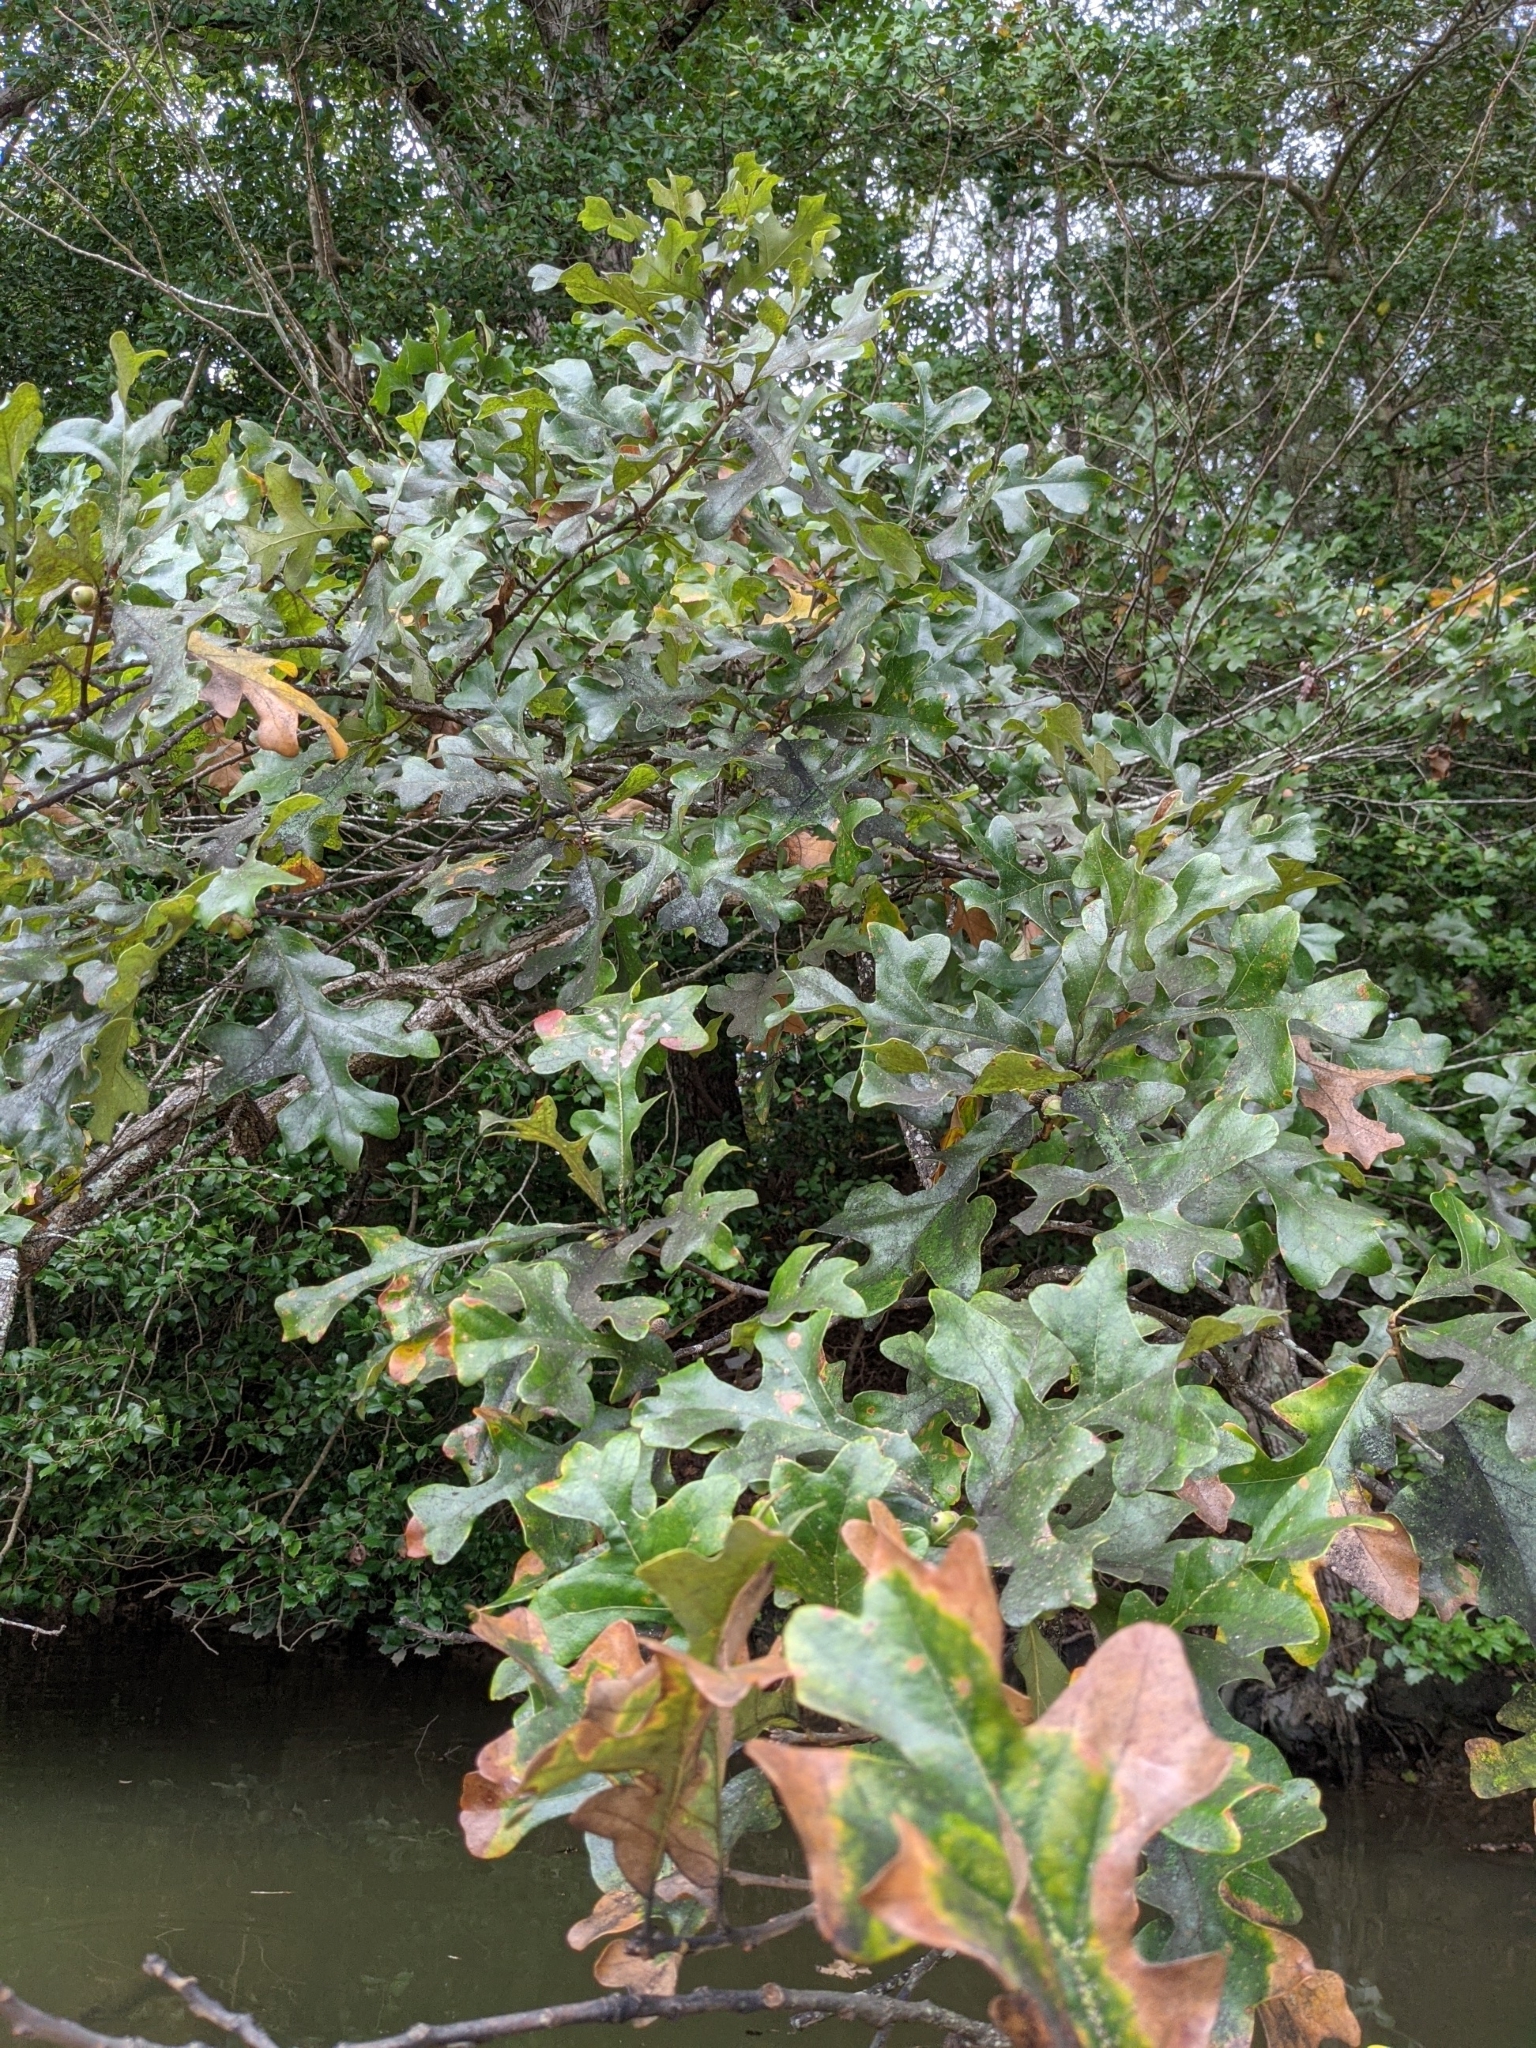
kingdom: Plantae
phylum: Tracheophyta
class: Magnoliopsida
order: Fagales
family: Fagaceae
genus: Quercus
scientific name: Quercus stellata
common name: Post oak
